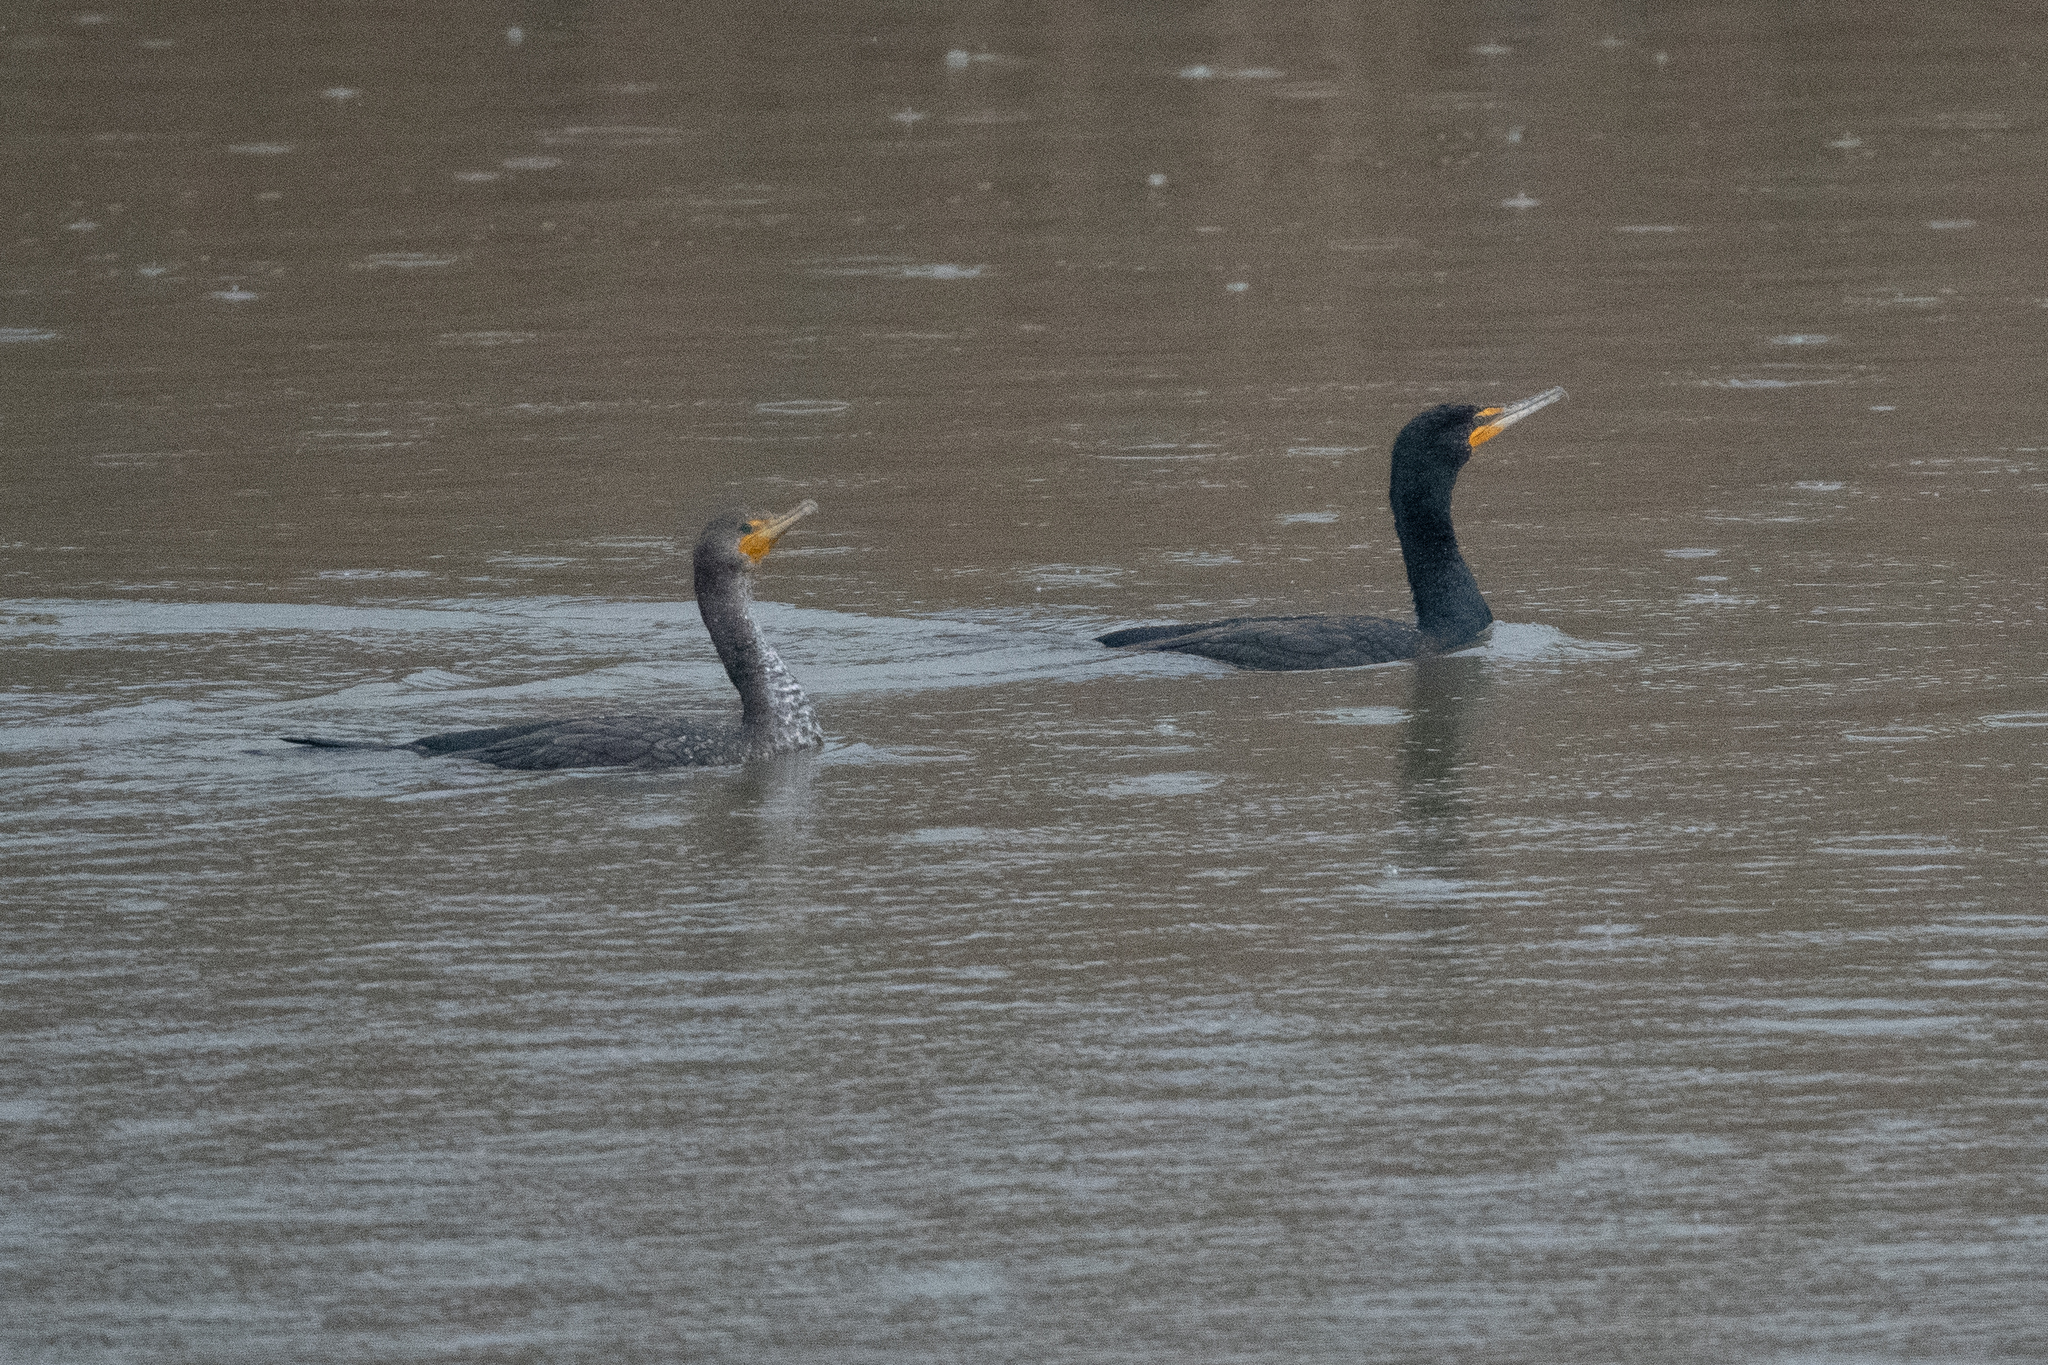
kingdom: Animalia
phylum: Chordata
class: Aves
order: Suliformes
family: Phalacrocoracidae
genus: Phalacrocorax
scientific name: Phalacrocorax auritus
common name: Double-crested cormorant
